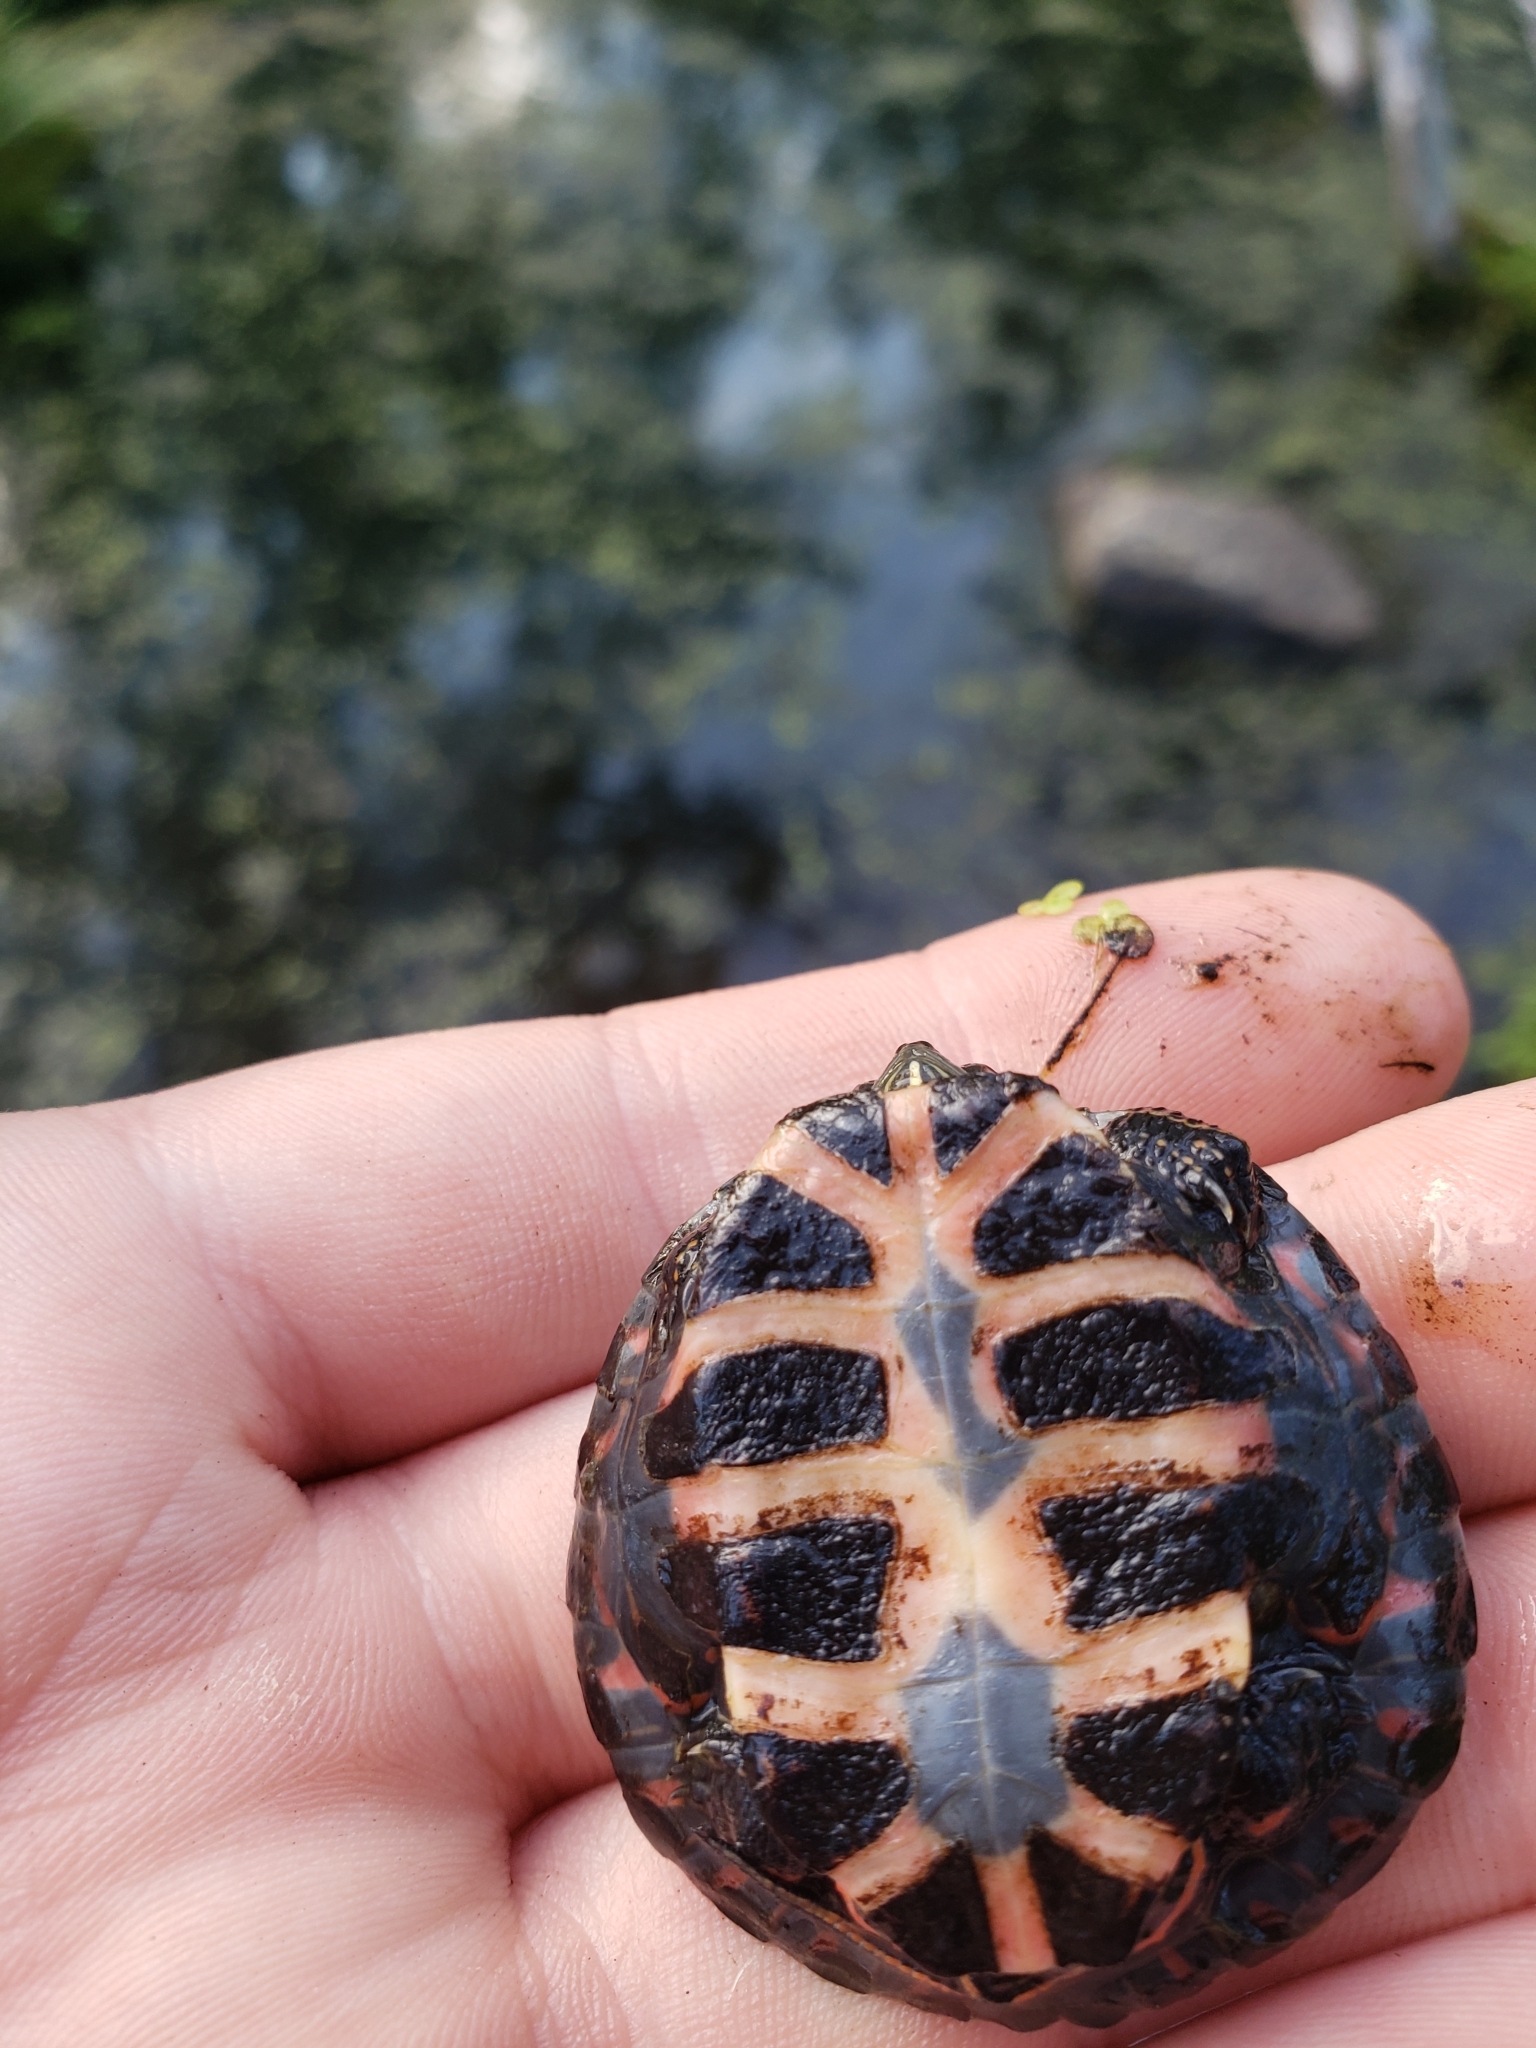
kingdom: Animalia
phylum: Chordata
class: Testudines
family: Emydidae
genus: Chrysemys
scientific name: Chrysemys picta
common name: Painted turtle
